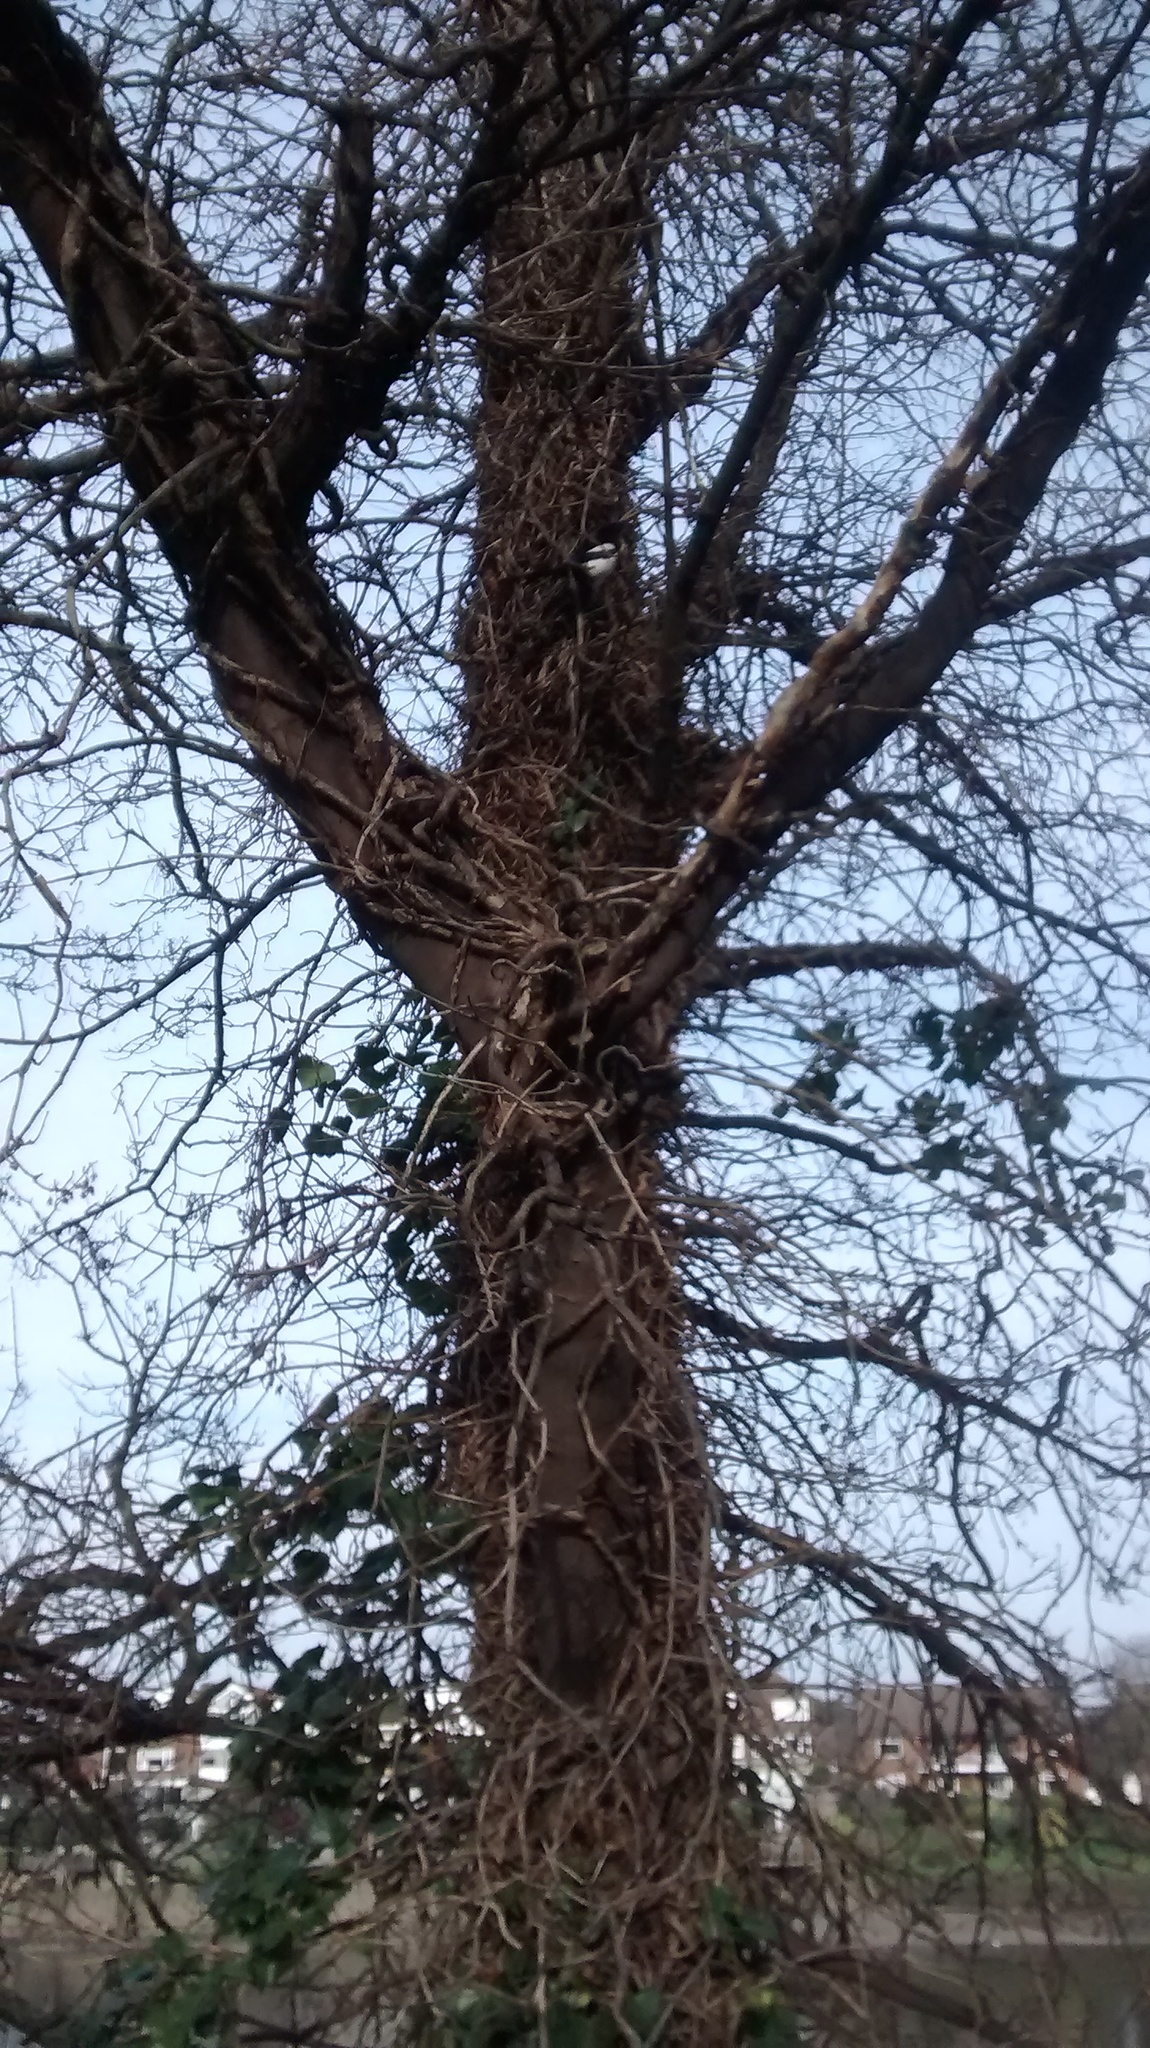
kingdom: Animalia
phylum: Chordata
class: Aves
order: Passeriformes
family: Corvidae
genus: Pica
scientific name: Pica pica
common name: Eurasian magpie
